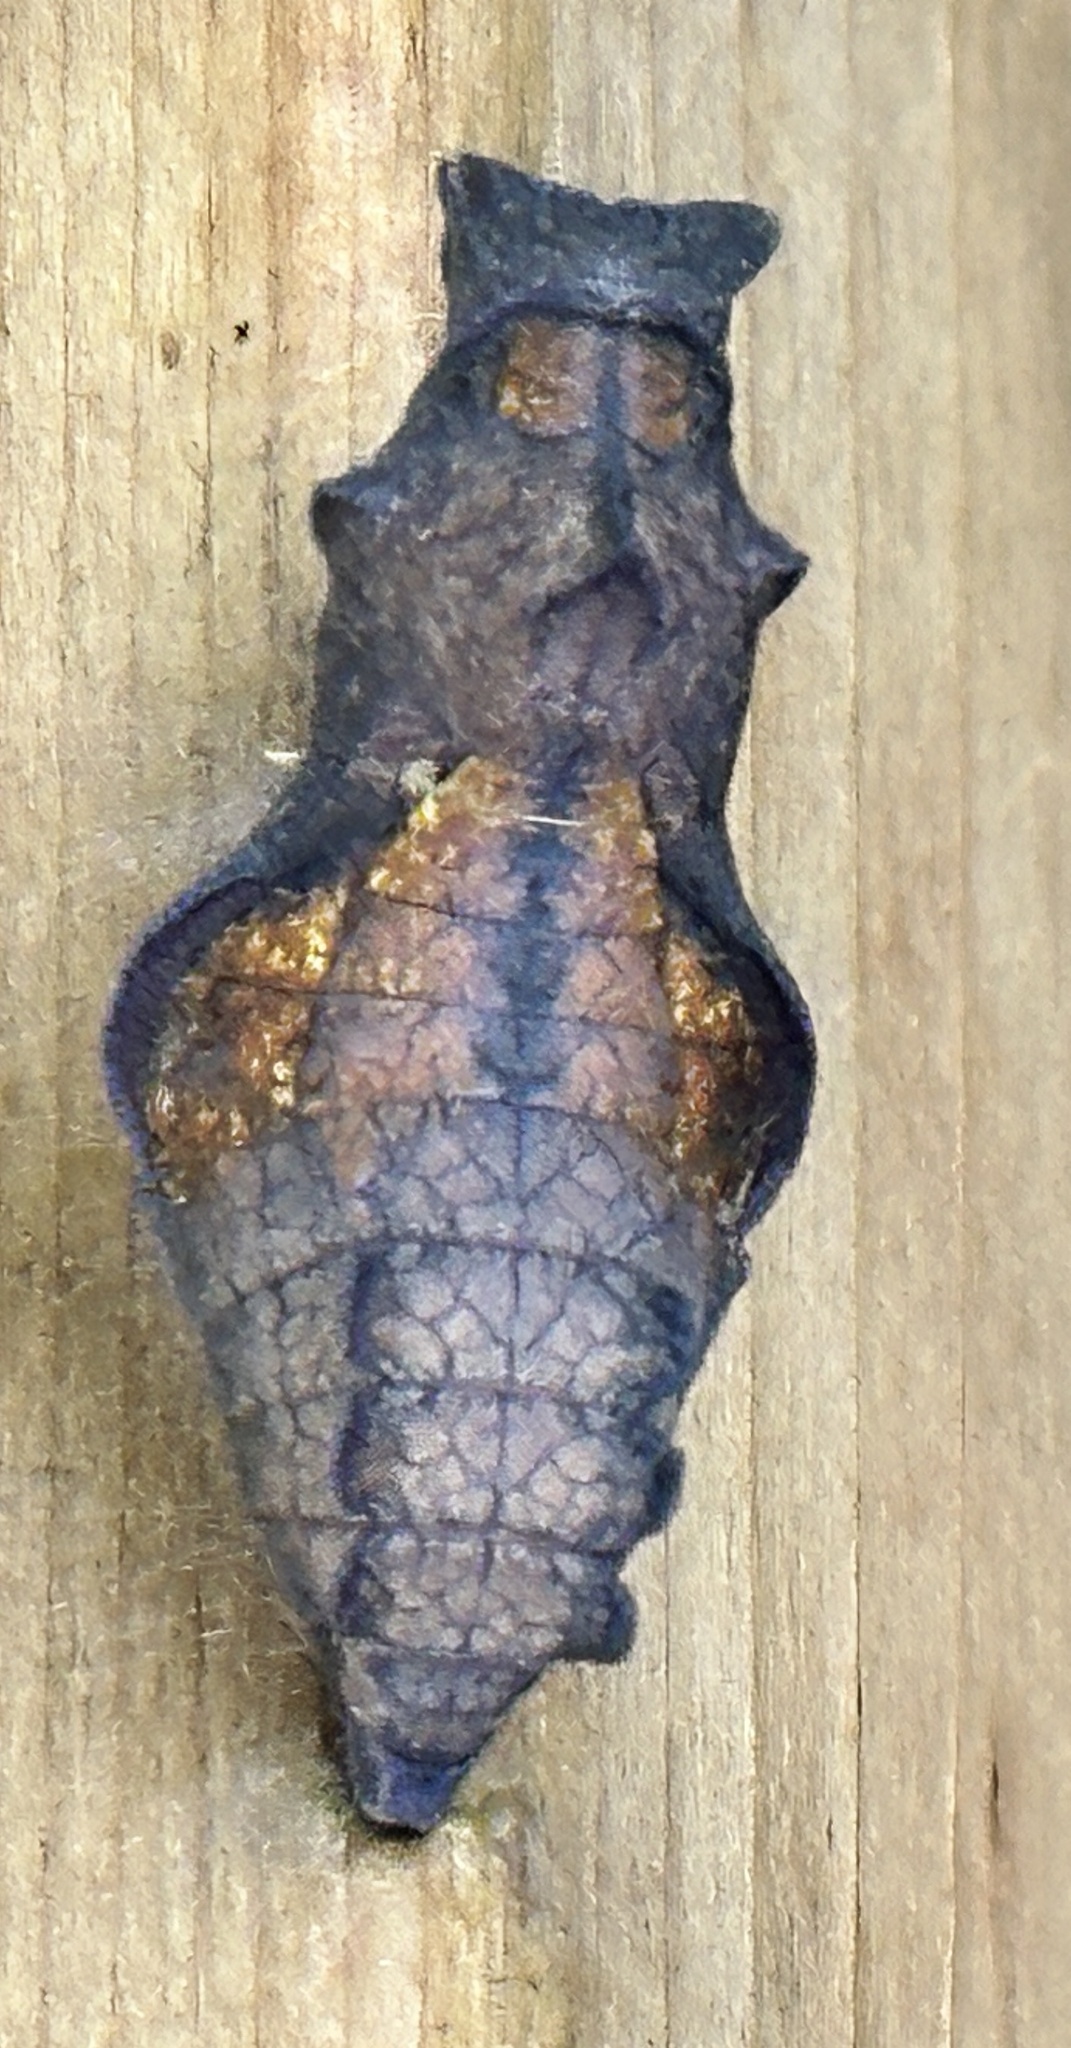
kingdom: Animalia
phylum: Arthropoda
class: Insecta
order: Lepidoptera
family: Papilionidae
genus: Battus
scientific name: Battus philenor
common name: Pipevine swallowtail
